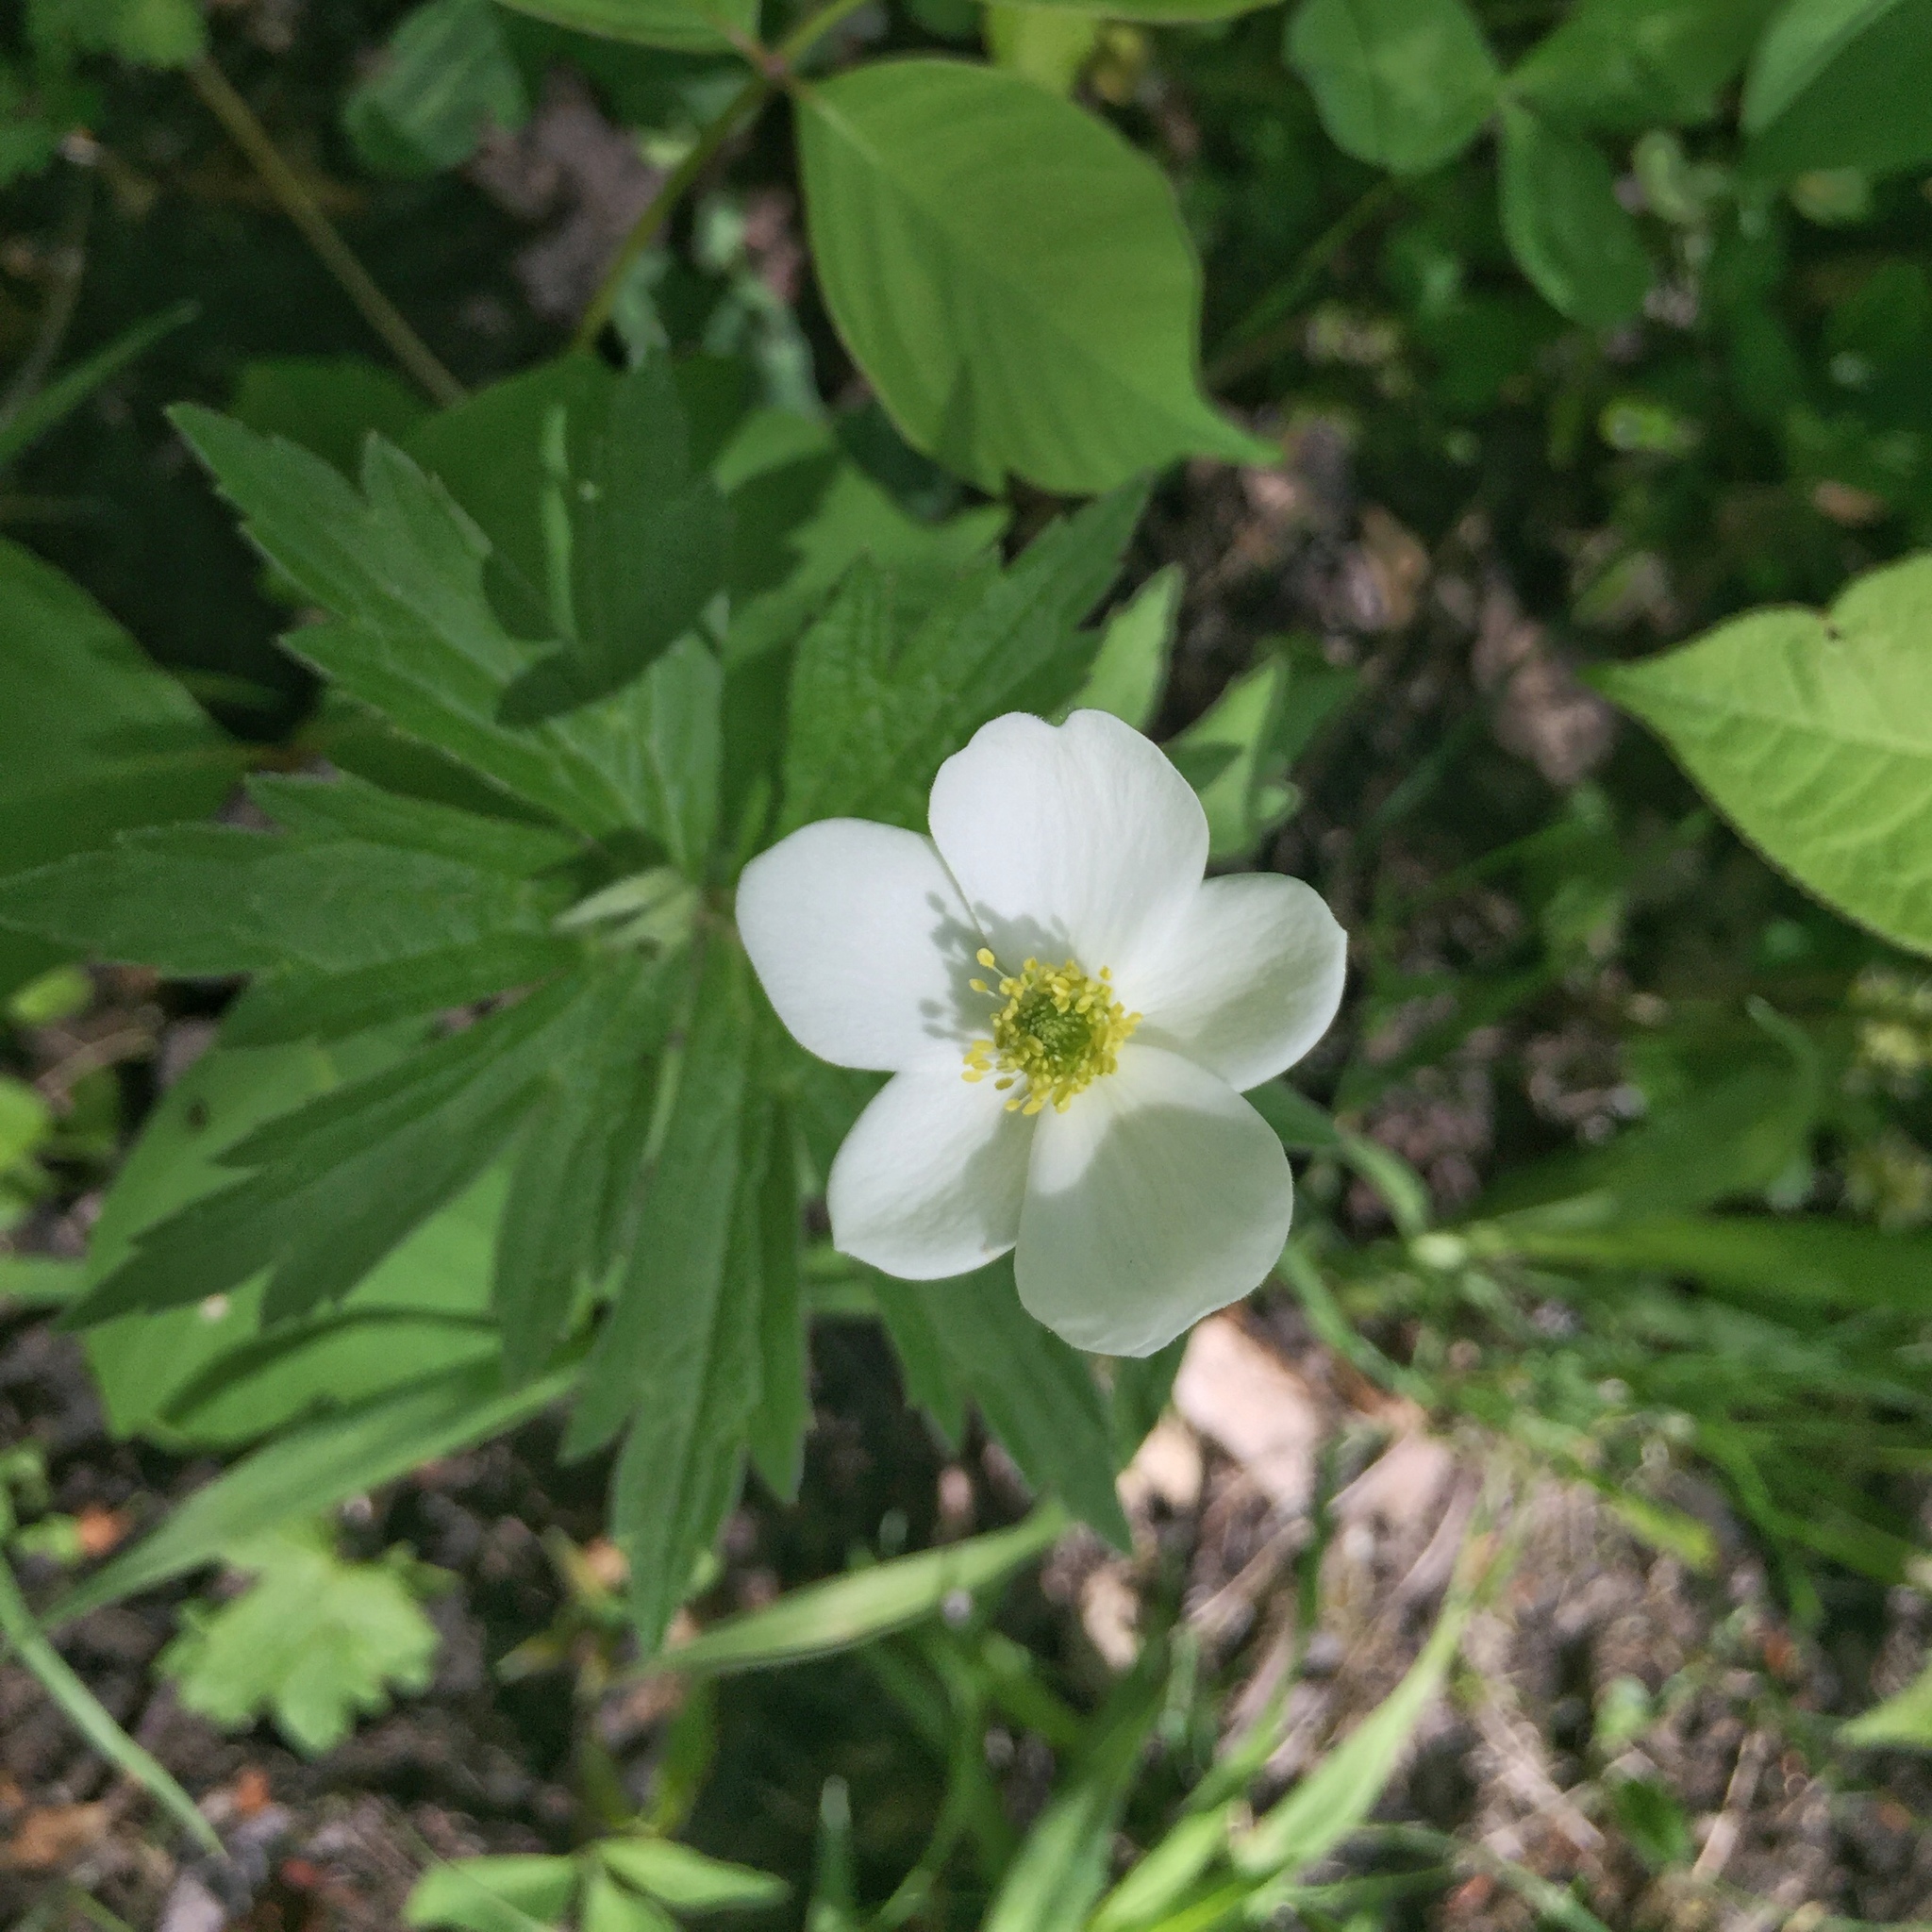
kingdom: Plantae
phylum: Tracheophyta
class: Magnoliopsida
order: Ranunculales
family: Ranunculaceae
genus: Anemonastrum
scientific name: Anemonastrum canadense
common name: Canada anemone
